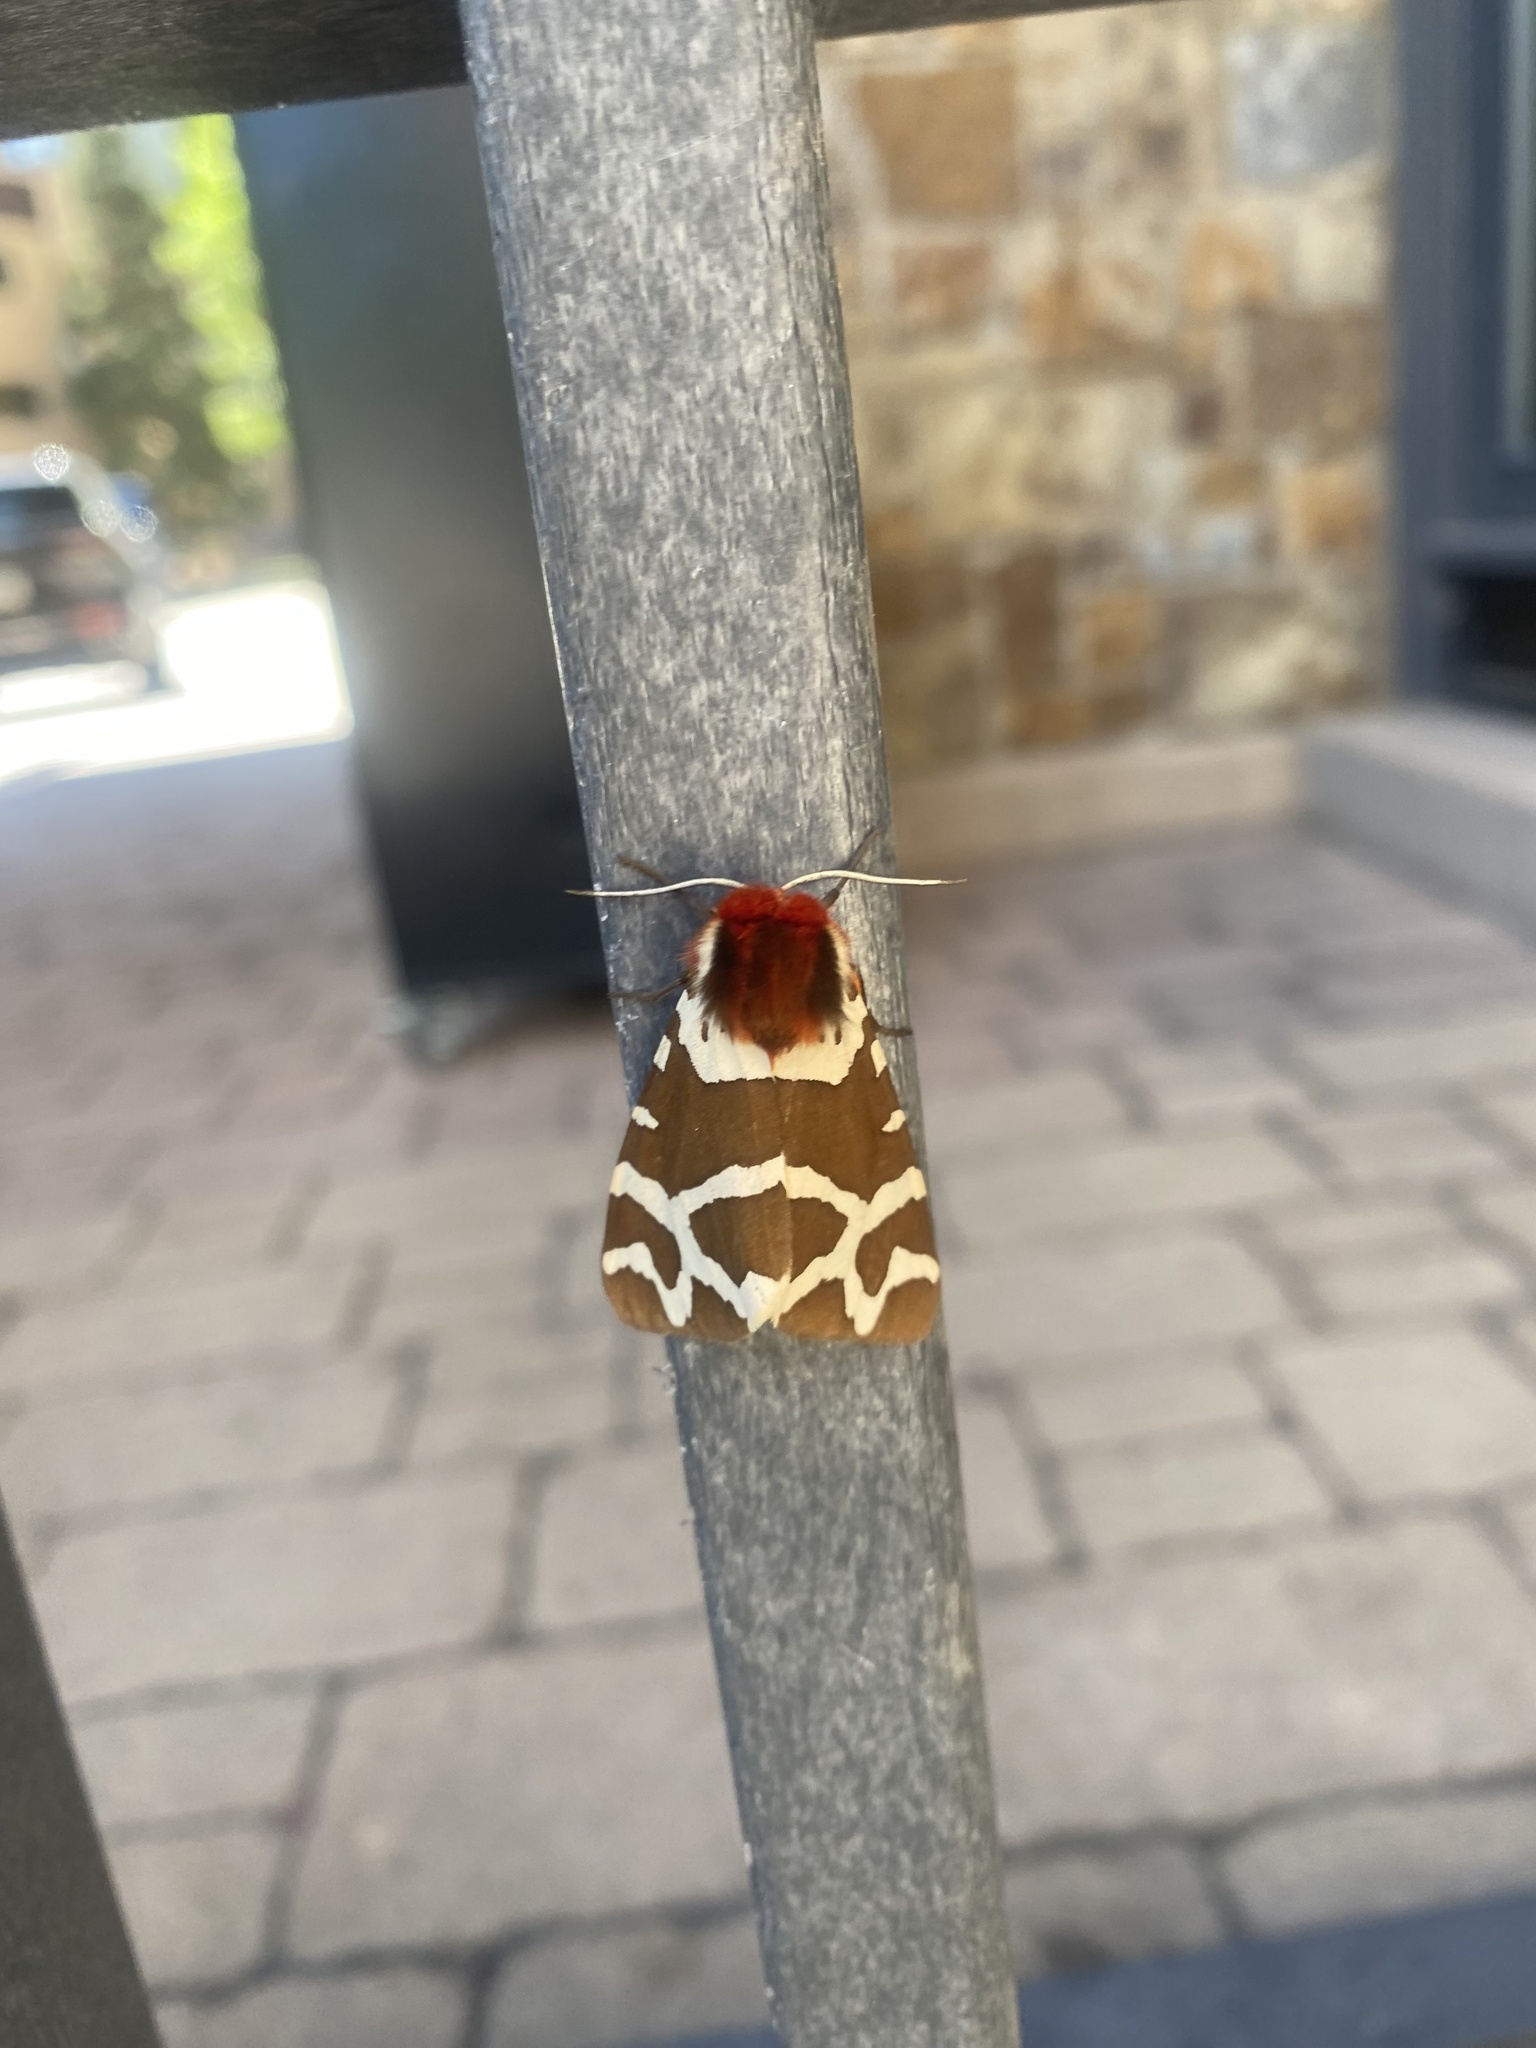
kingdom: Animalia
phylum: Arthropoda
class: Insecta
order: Lepidoptera
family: Erebidae
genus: Arctia
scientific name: Arctia caja
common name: Garden tiger
